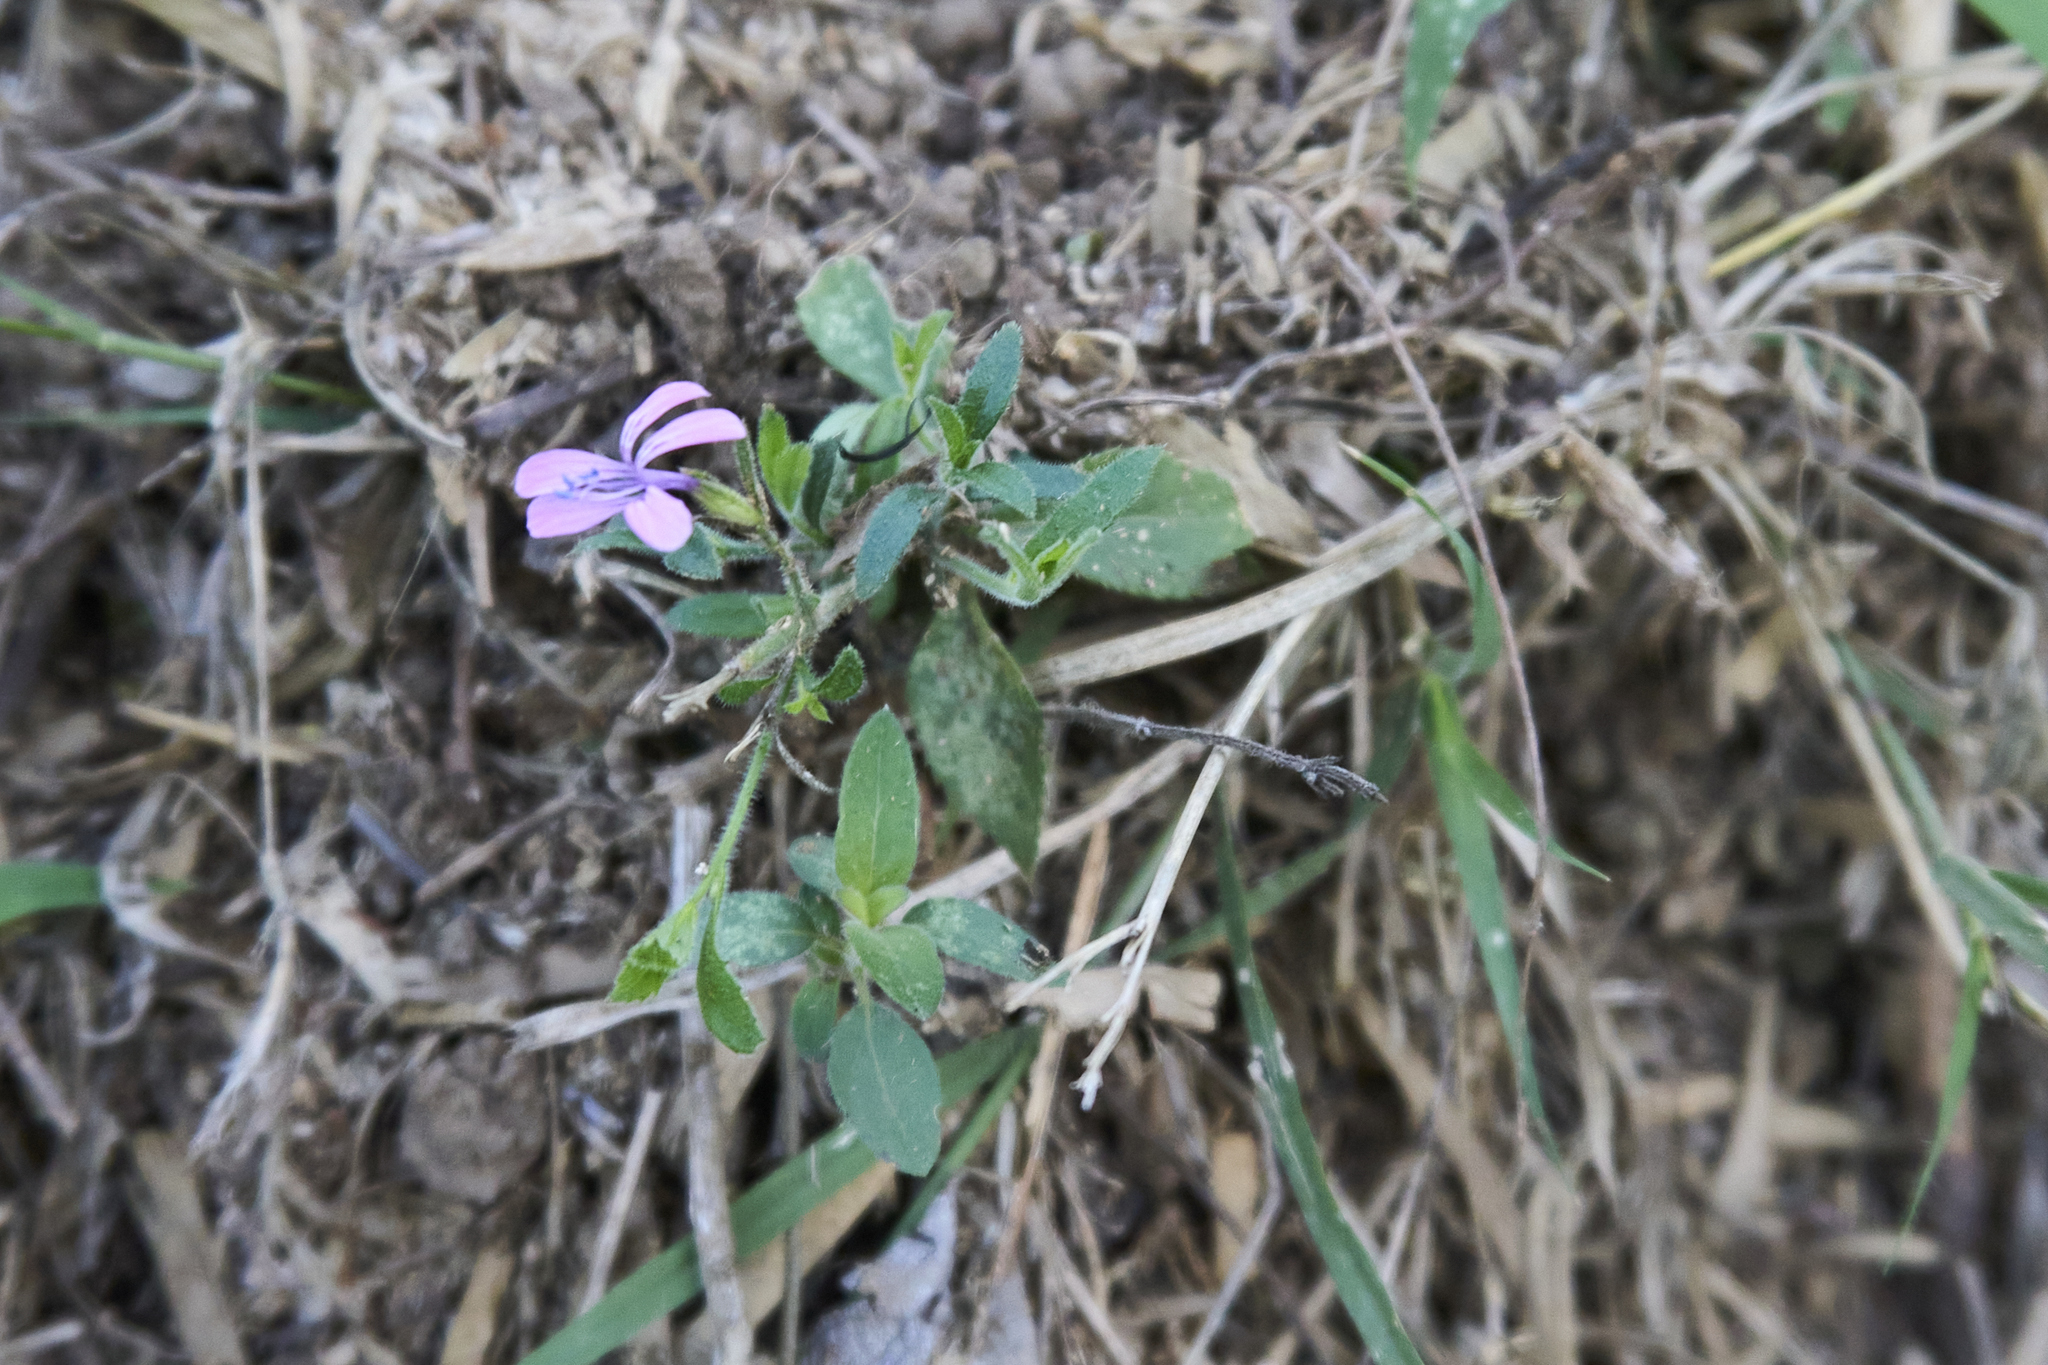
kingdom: Plantae
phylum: Tracheophyta
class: Magnoliopsida
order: Ericales
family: Polemoniaceae
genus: Loeselia
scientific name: Loeselia glandulosa
